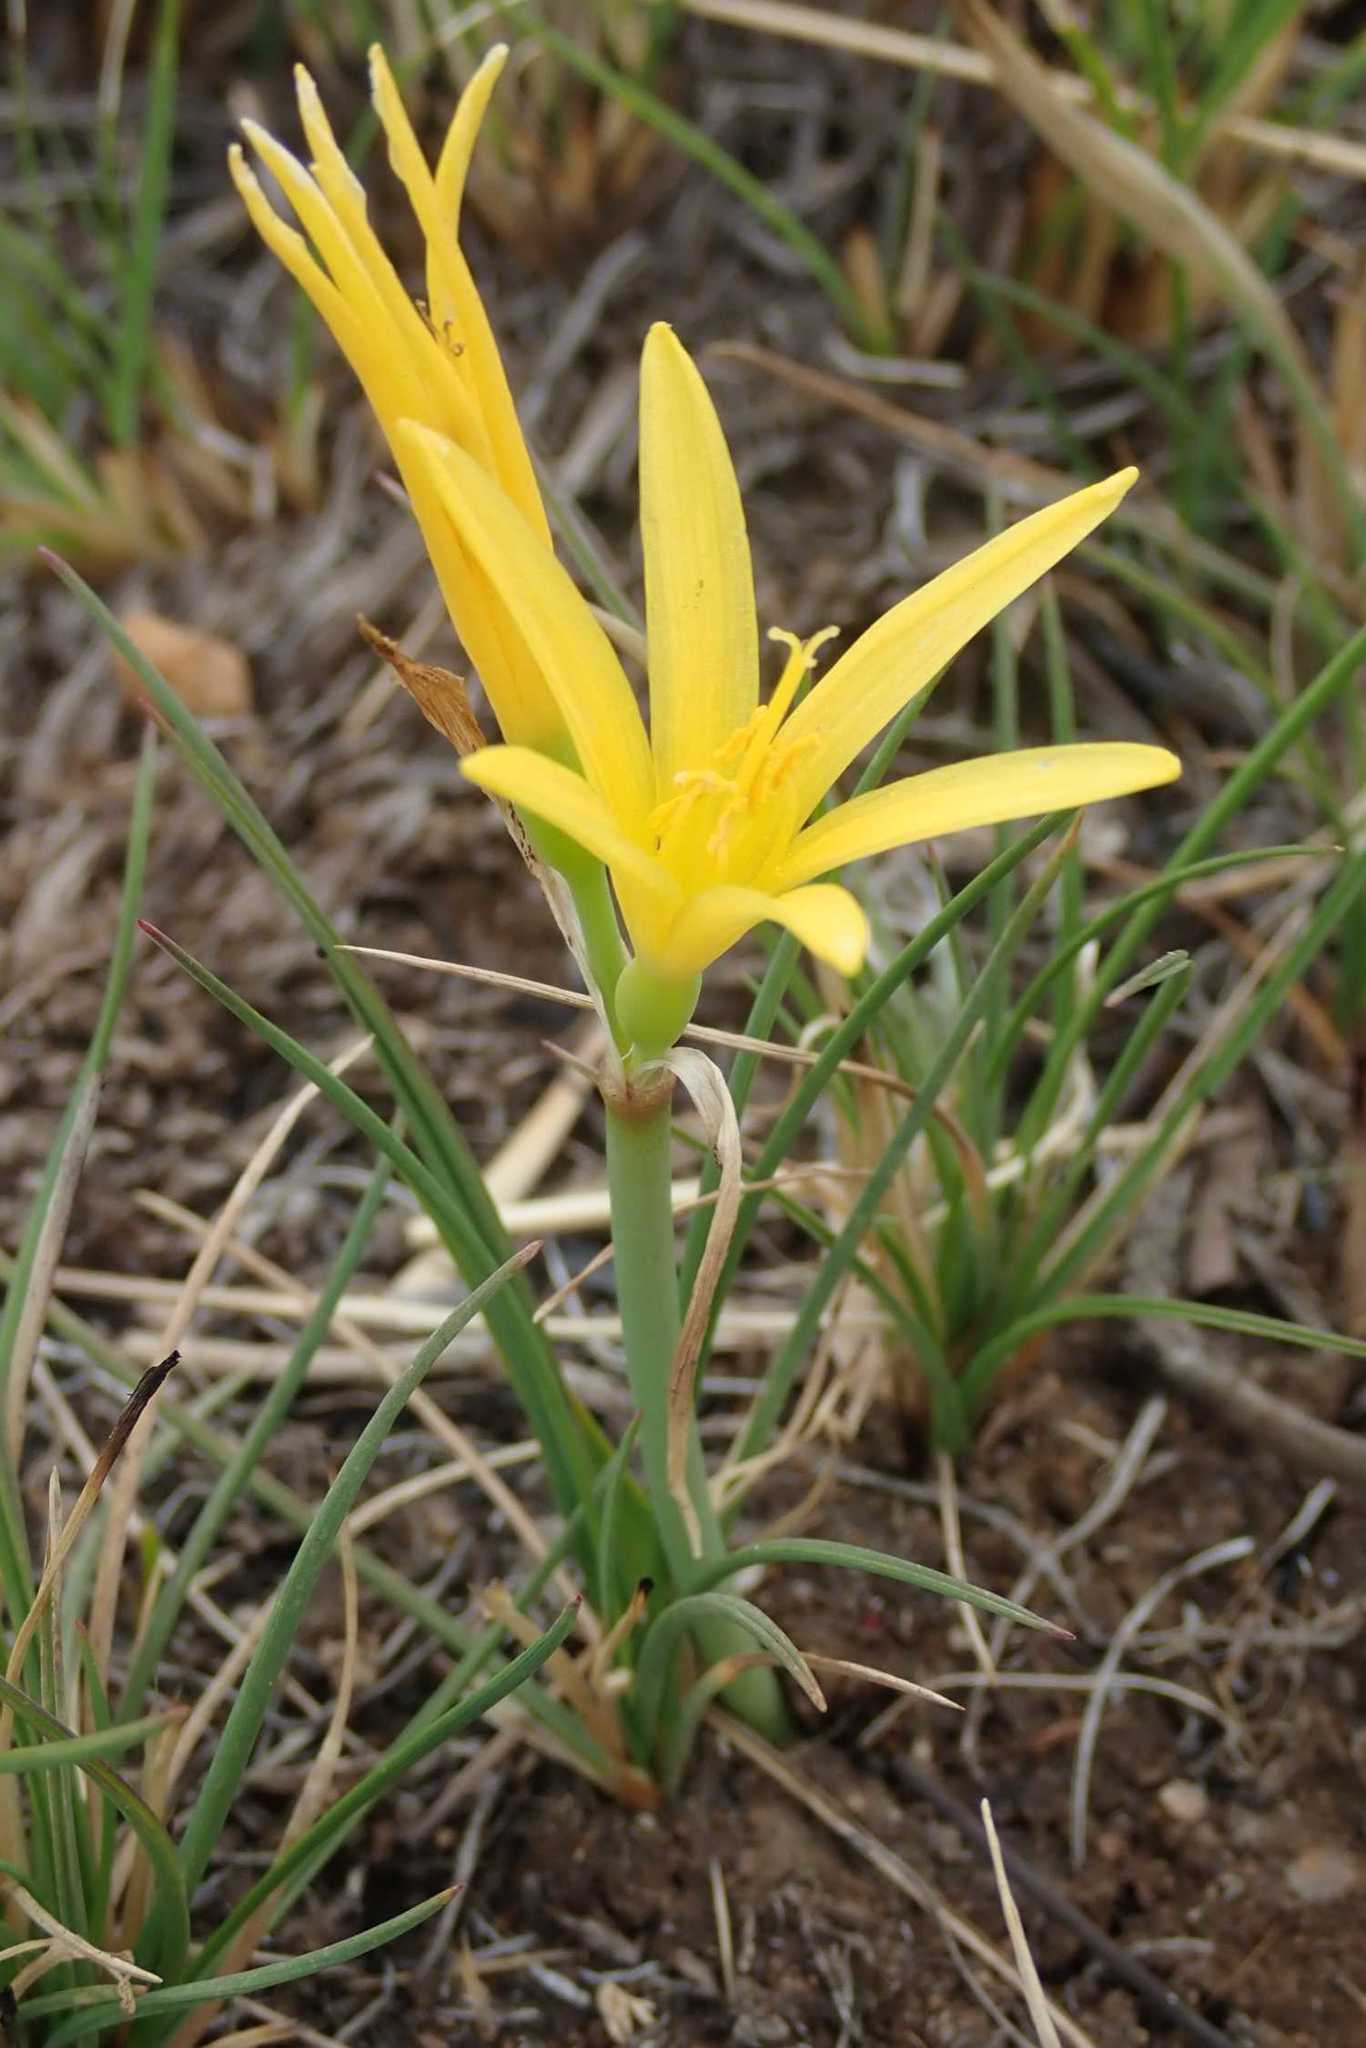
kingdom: Plantae
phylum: Tracheophyta
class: Liliopsida
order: Asparagales
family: Amaryllidaceae
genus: Cyrtanthus
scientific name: Cyrtanthus breviflorus
